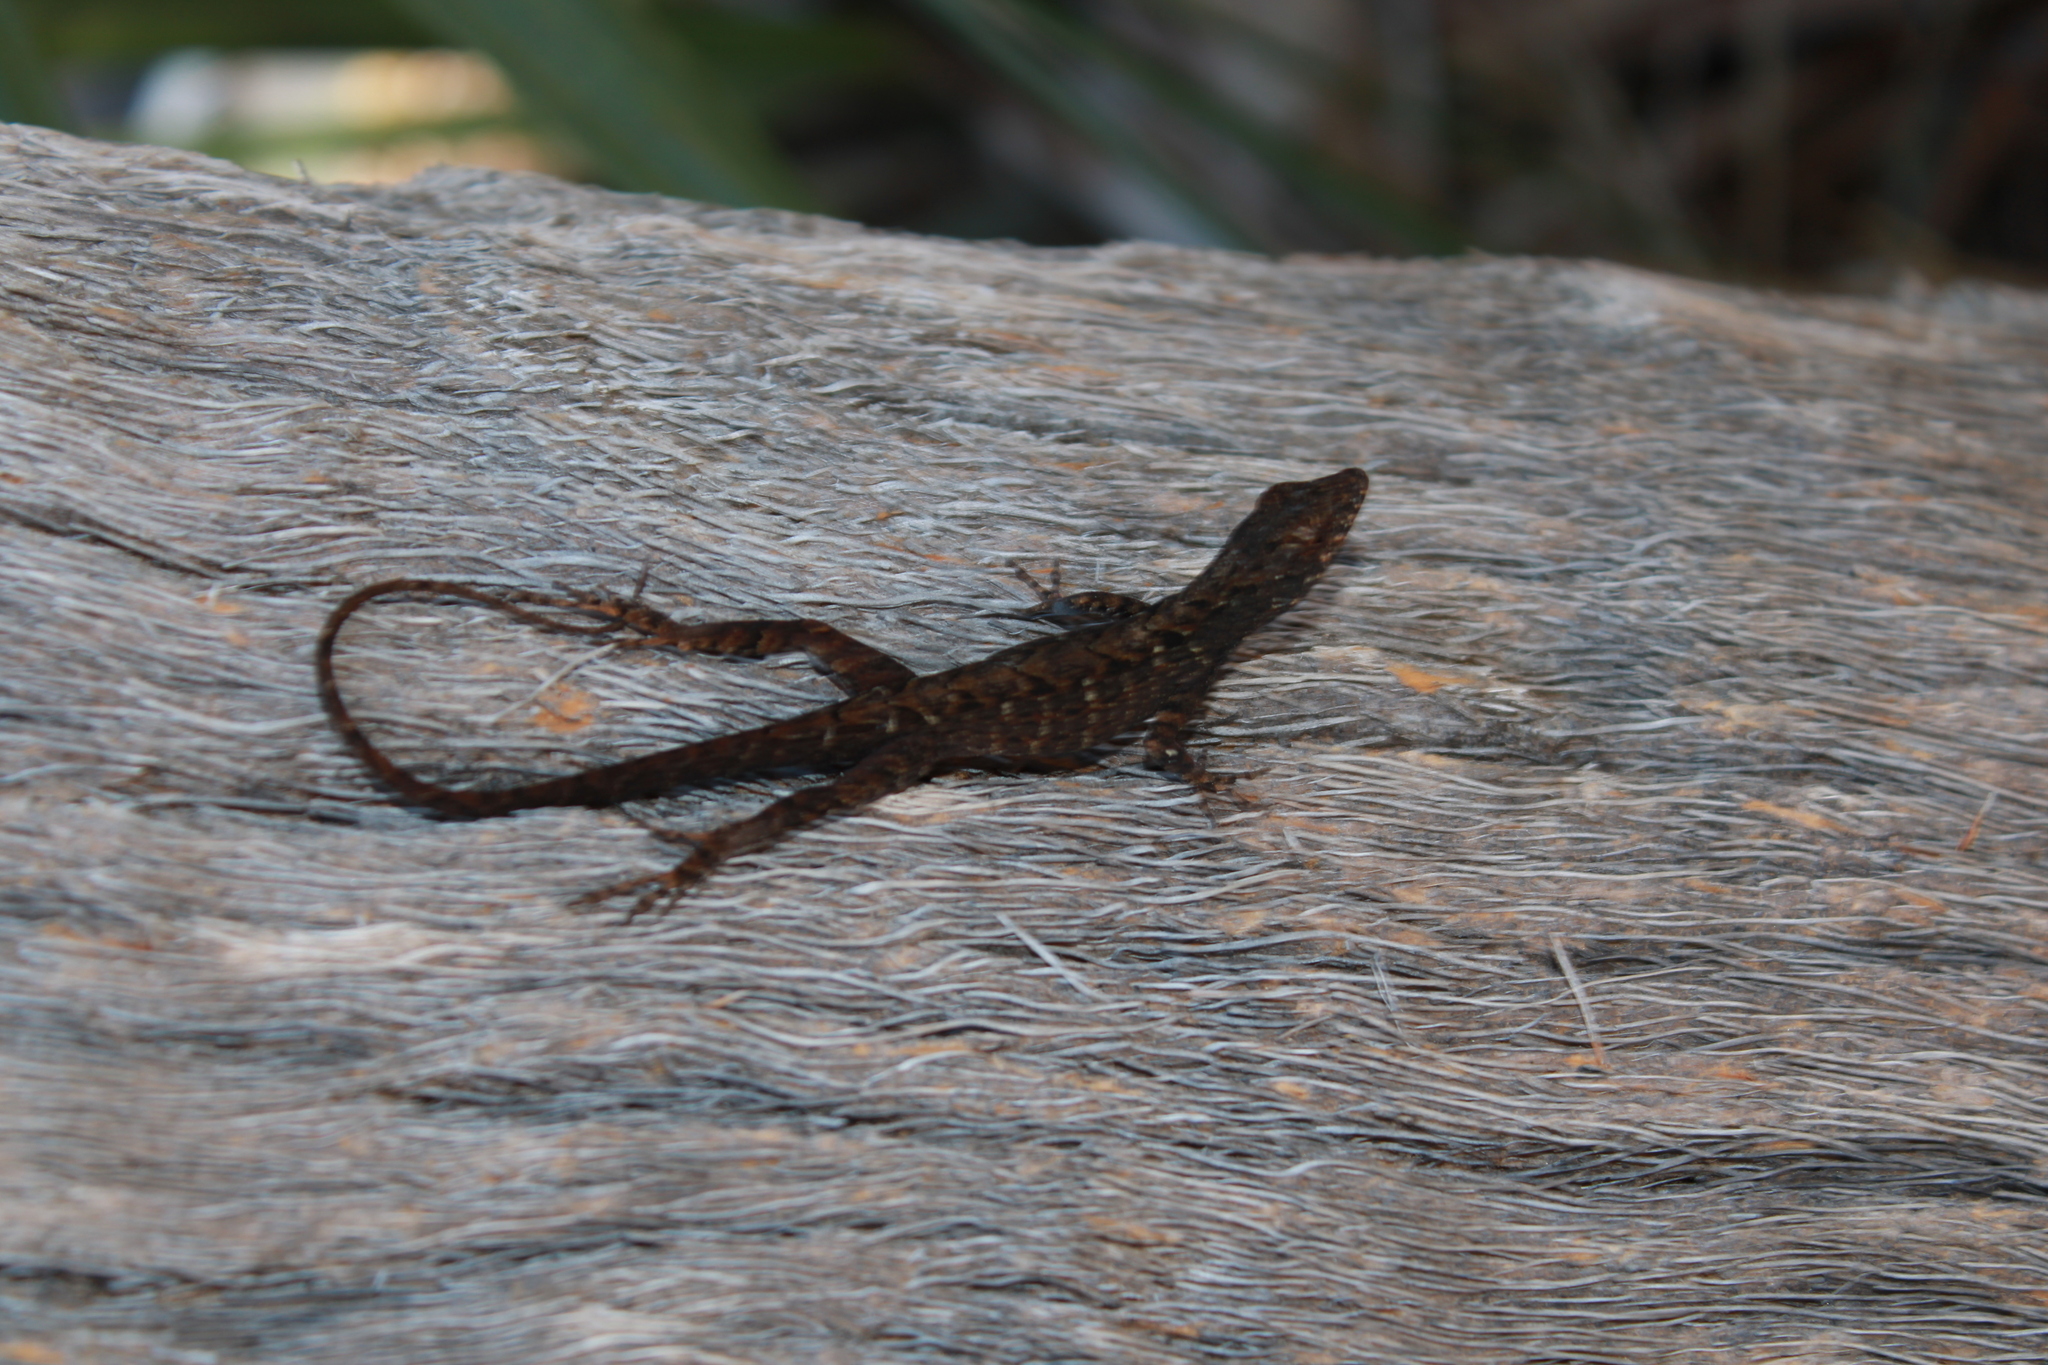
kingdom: Animalia
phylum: Chordata
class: Squamata
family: Dactyloidae
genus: Anolis
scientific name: Anolis sagrei
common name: Brown anole
